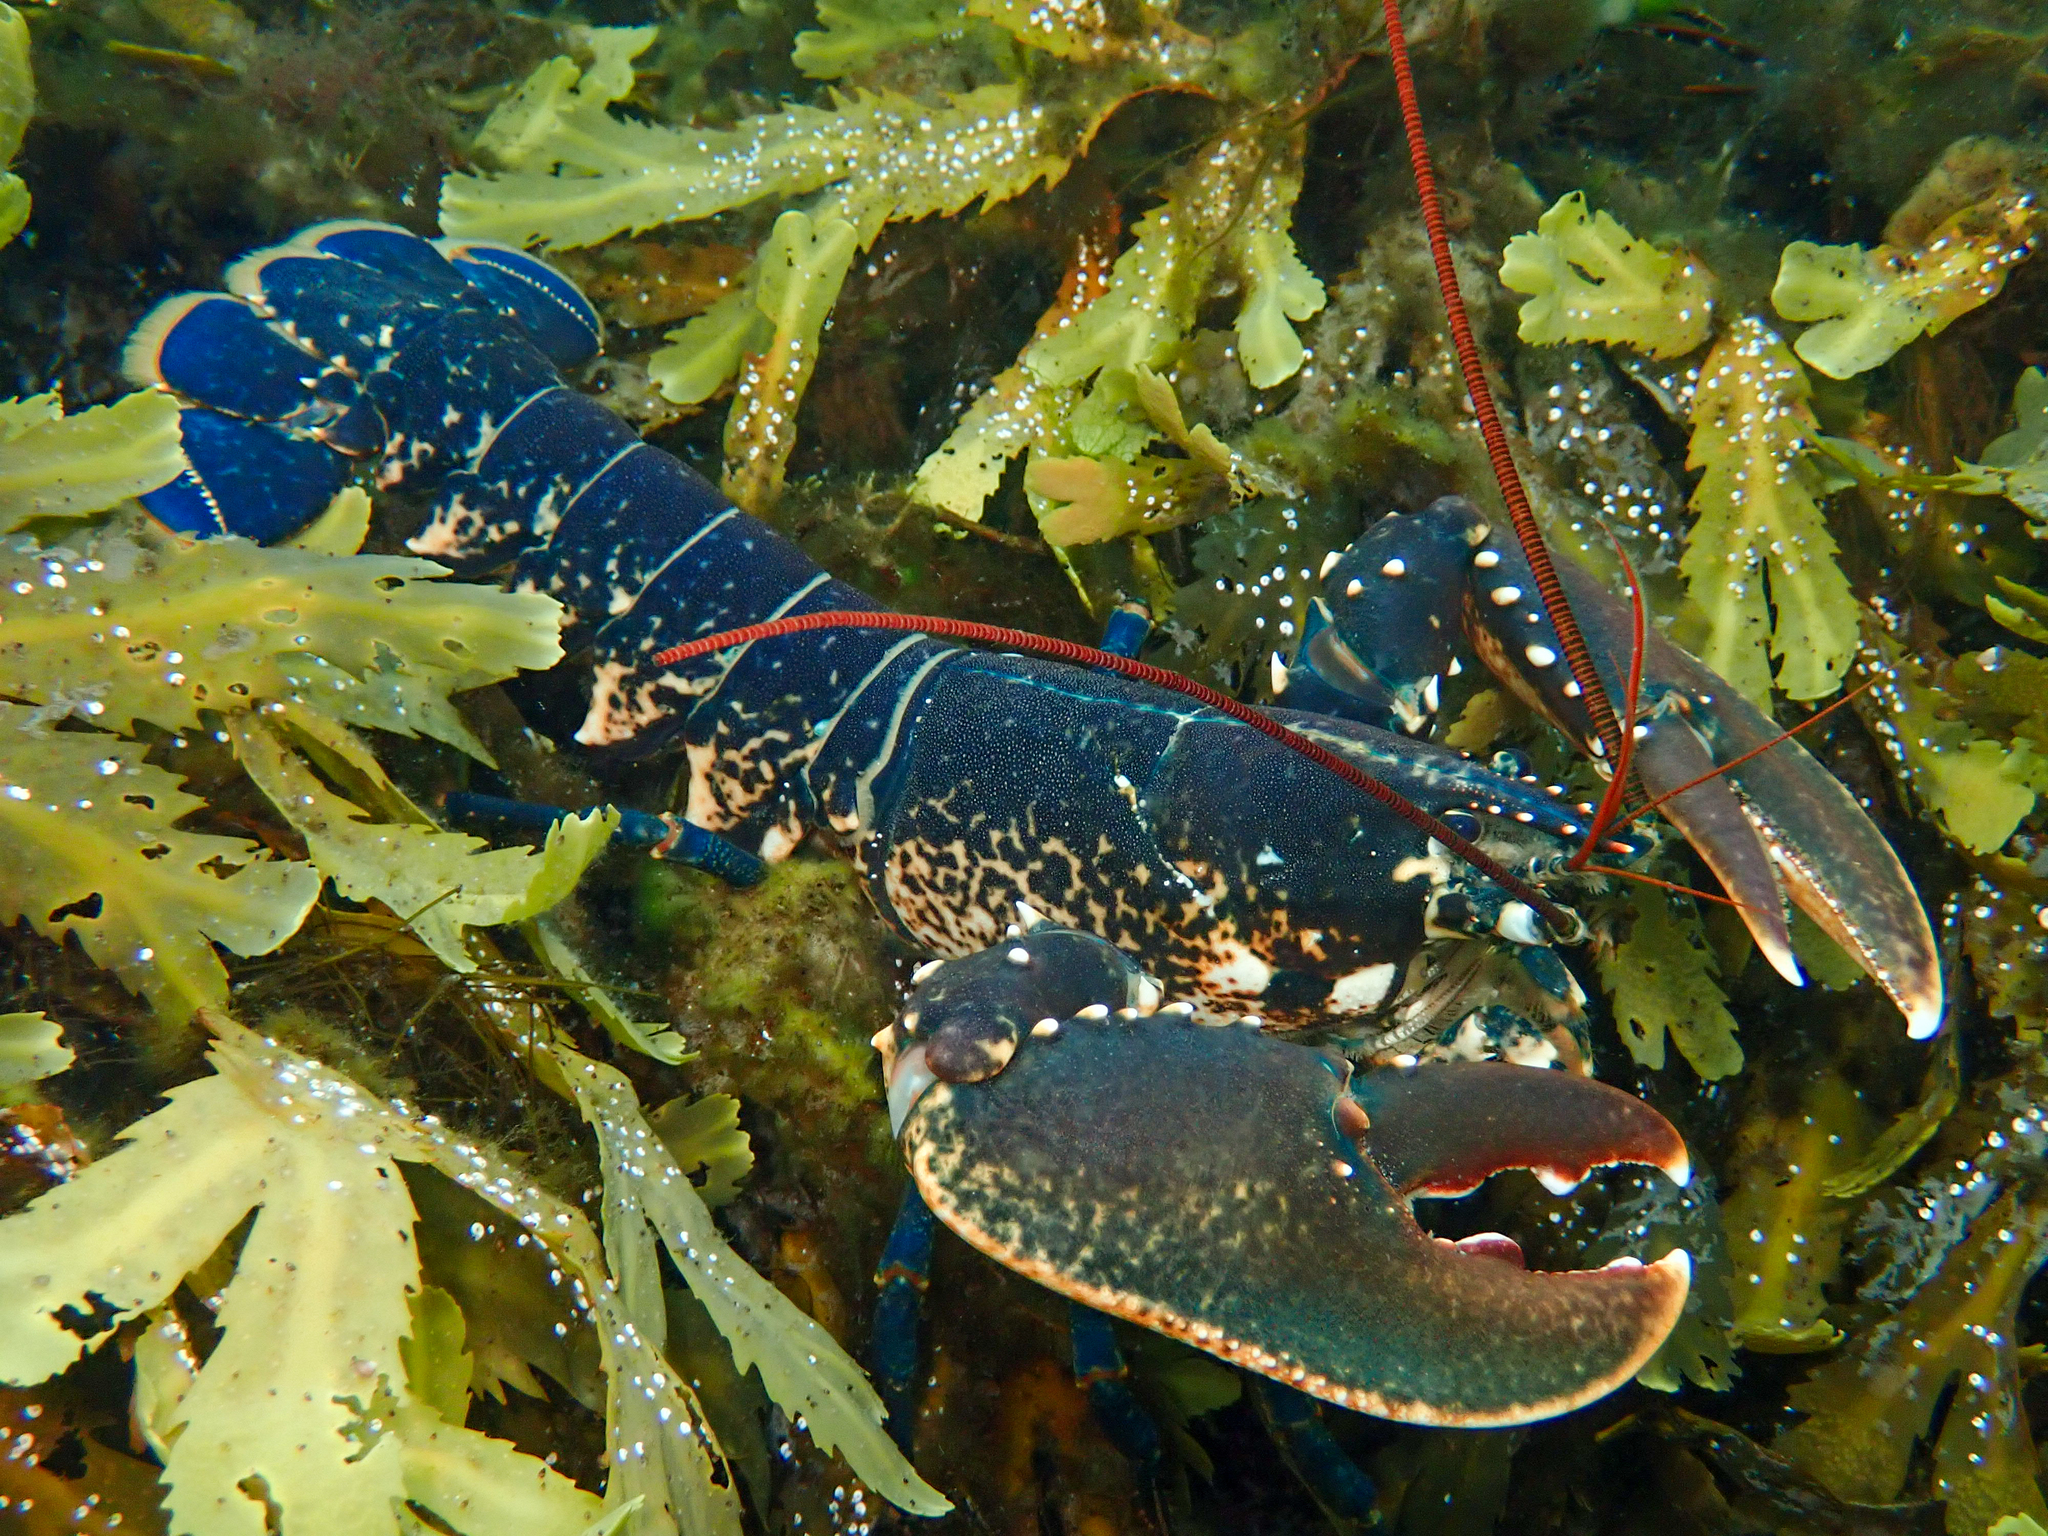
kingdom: Animalia
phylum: Arthropoda
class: Malacostraca
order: Decapoda
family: Nephropidae
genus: Homarus
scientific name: Homarus gammarus
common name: European lobster
